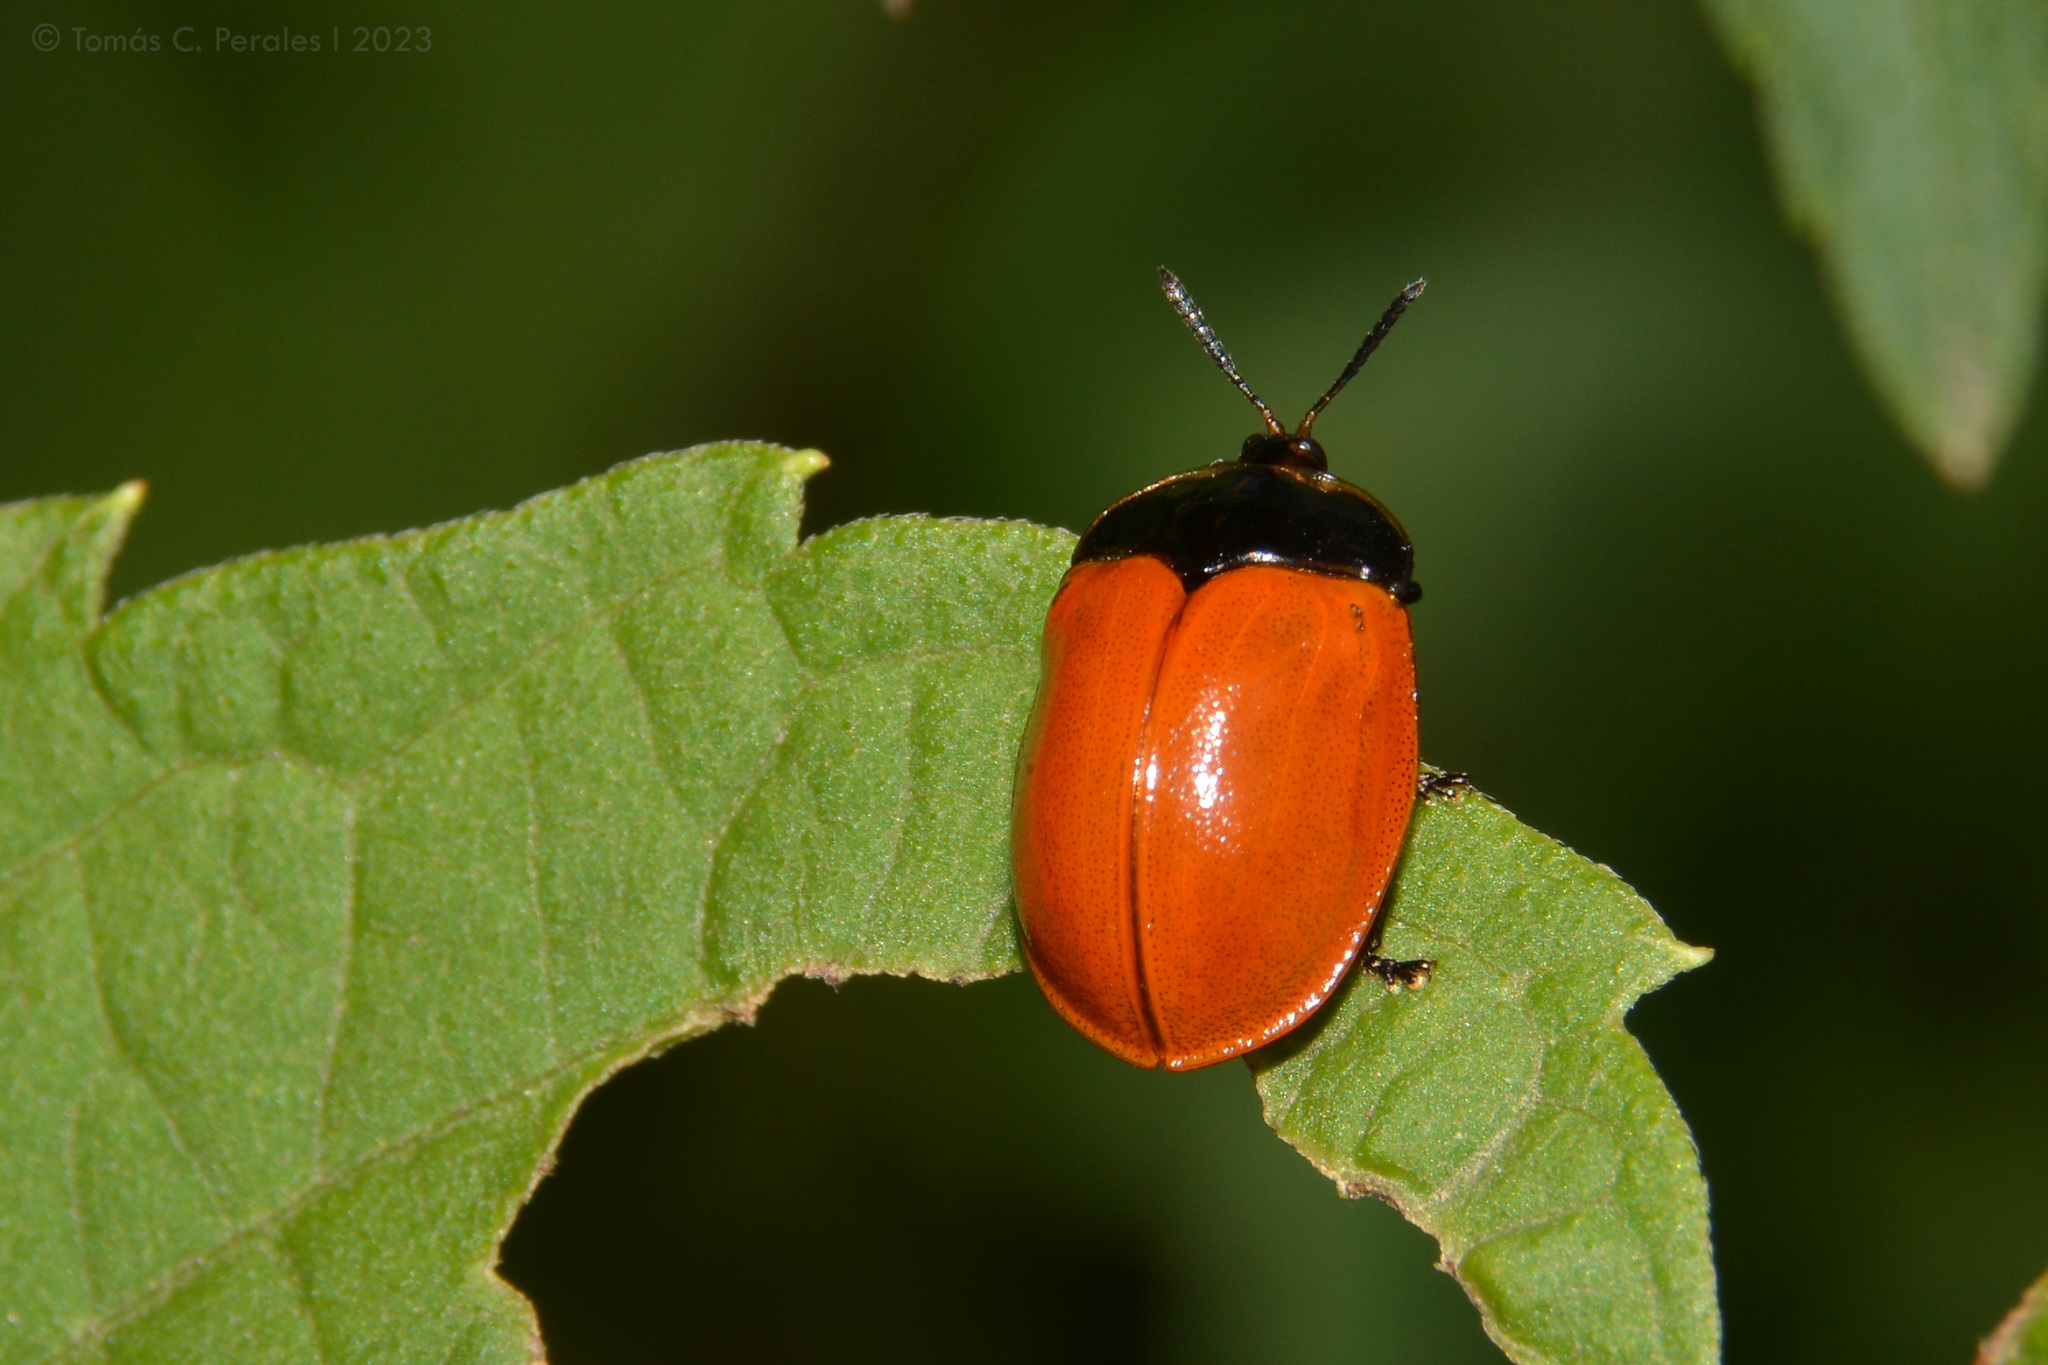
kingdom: Animalia
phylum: Arthropoda
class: Insecta
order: Coleoptera
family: Chrysomelidae
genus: Chelymorpha
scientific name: Chelymorpha cribraria
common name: Tortoise beetle
